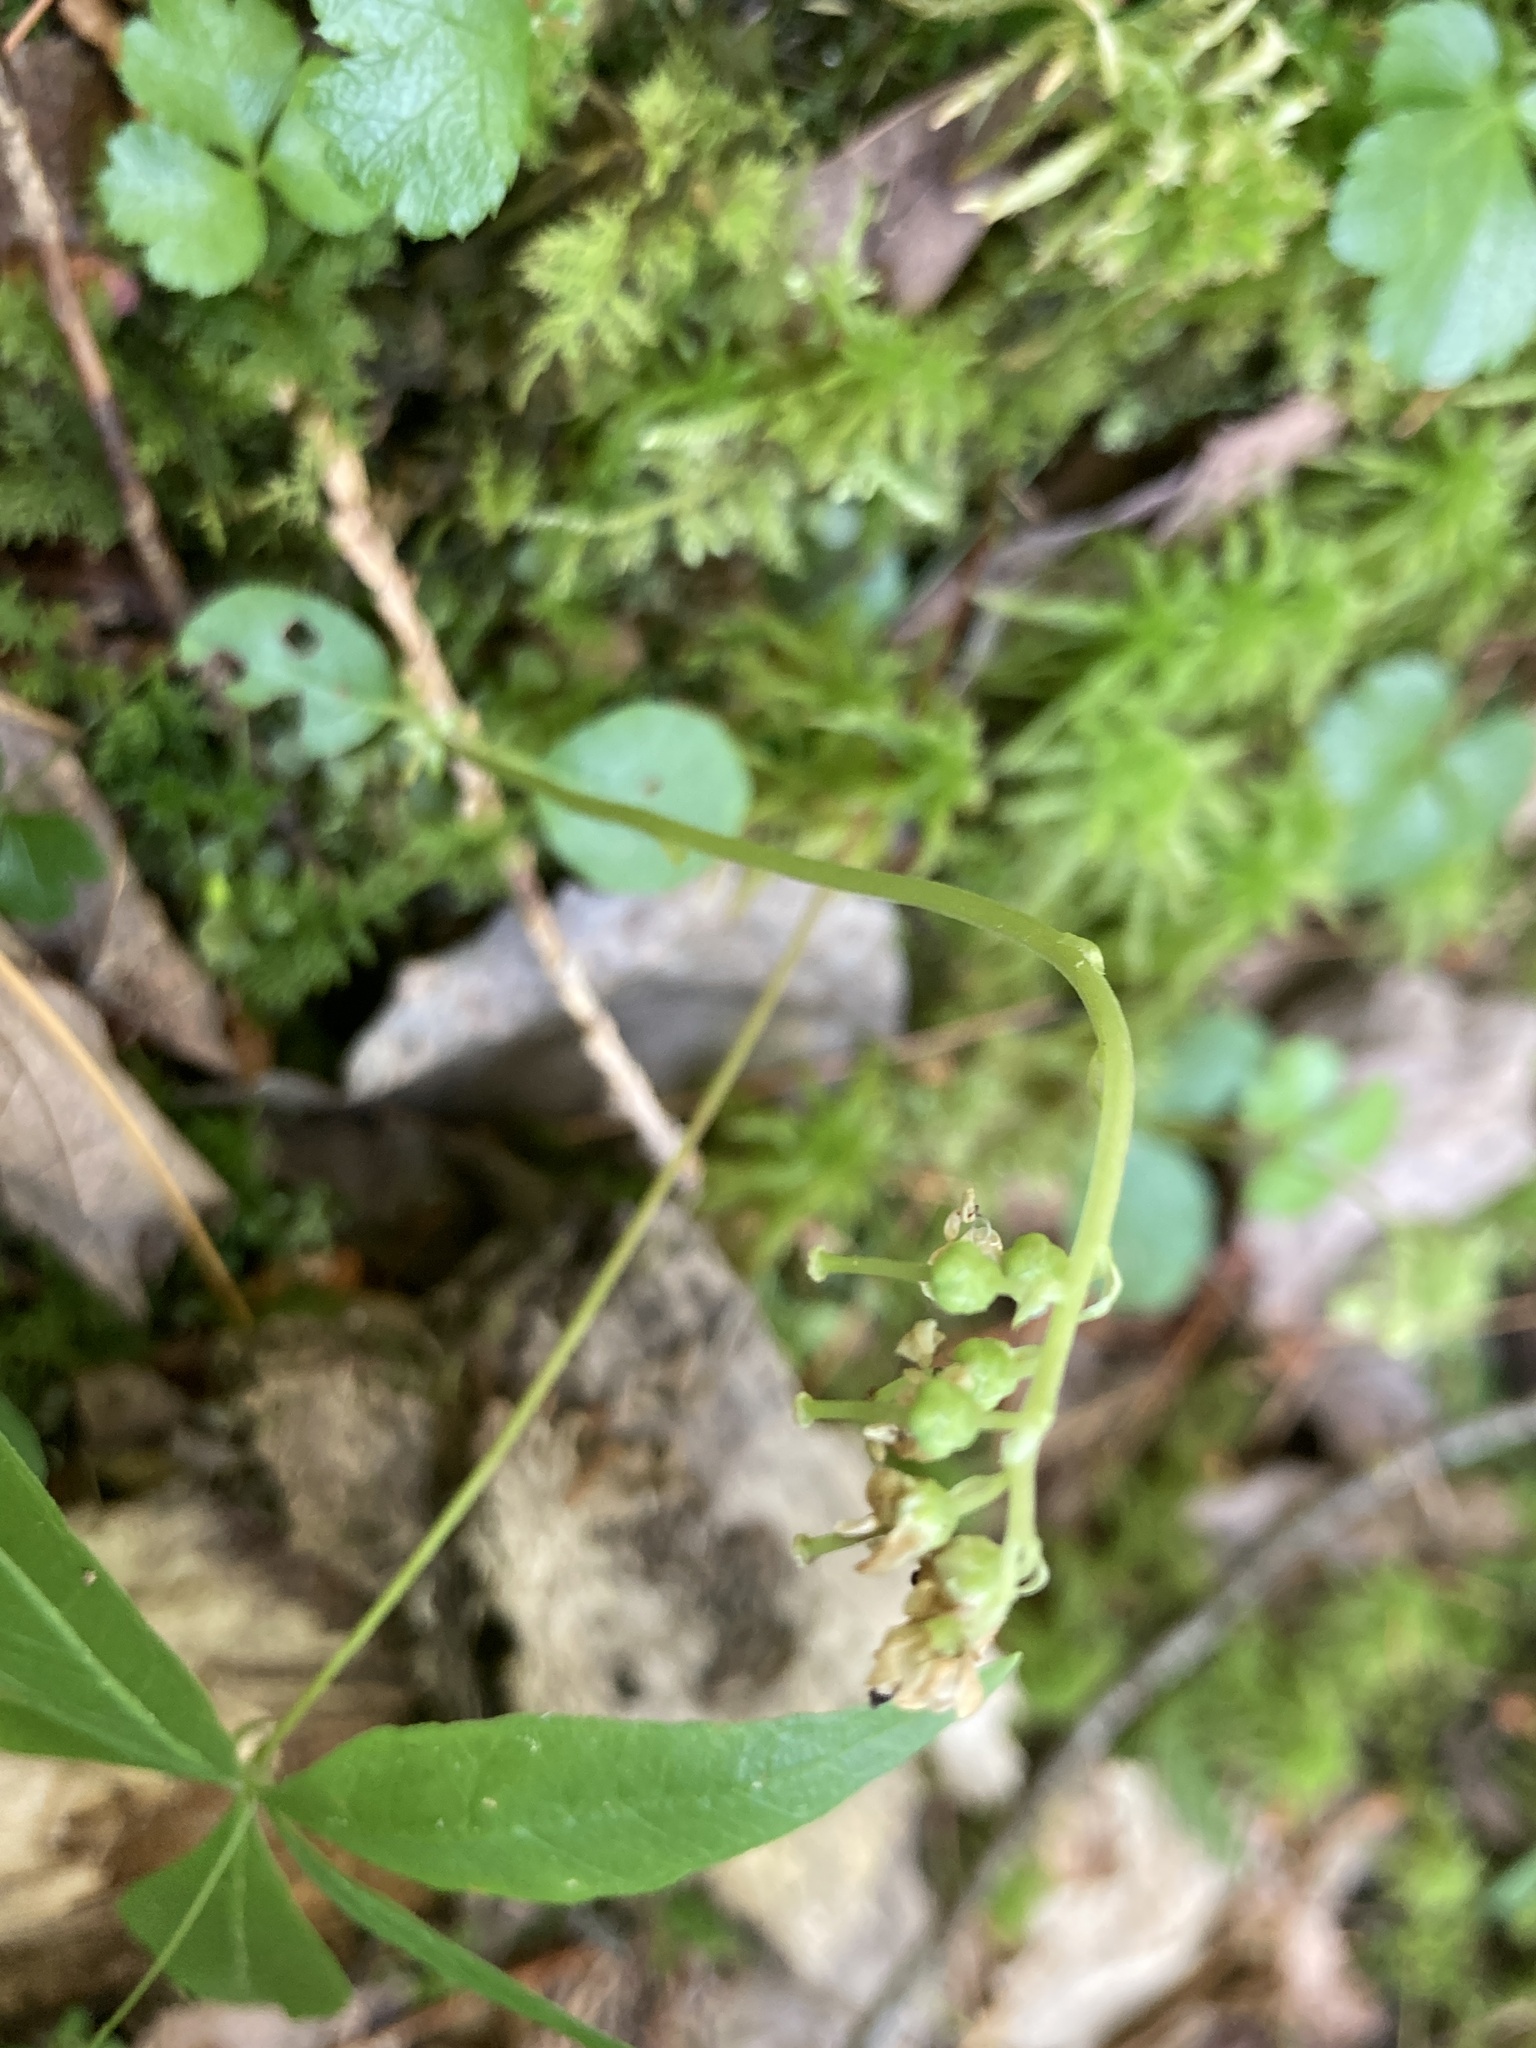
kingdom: Plantae
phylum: Tracheophyta
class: Magnoliopsida
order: Ericales
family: Ericaceae
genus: Orthilia
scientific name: Orthilia secunda
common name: One-sided orthilia
